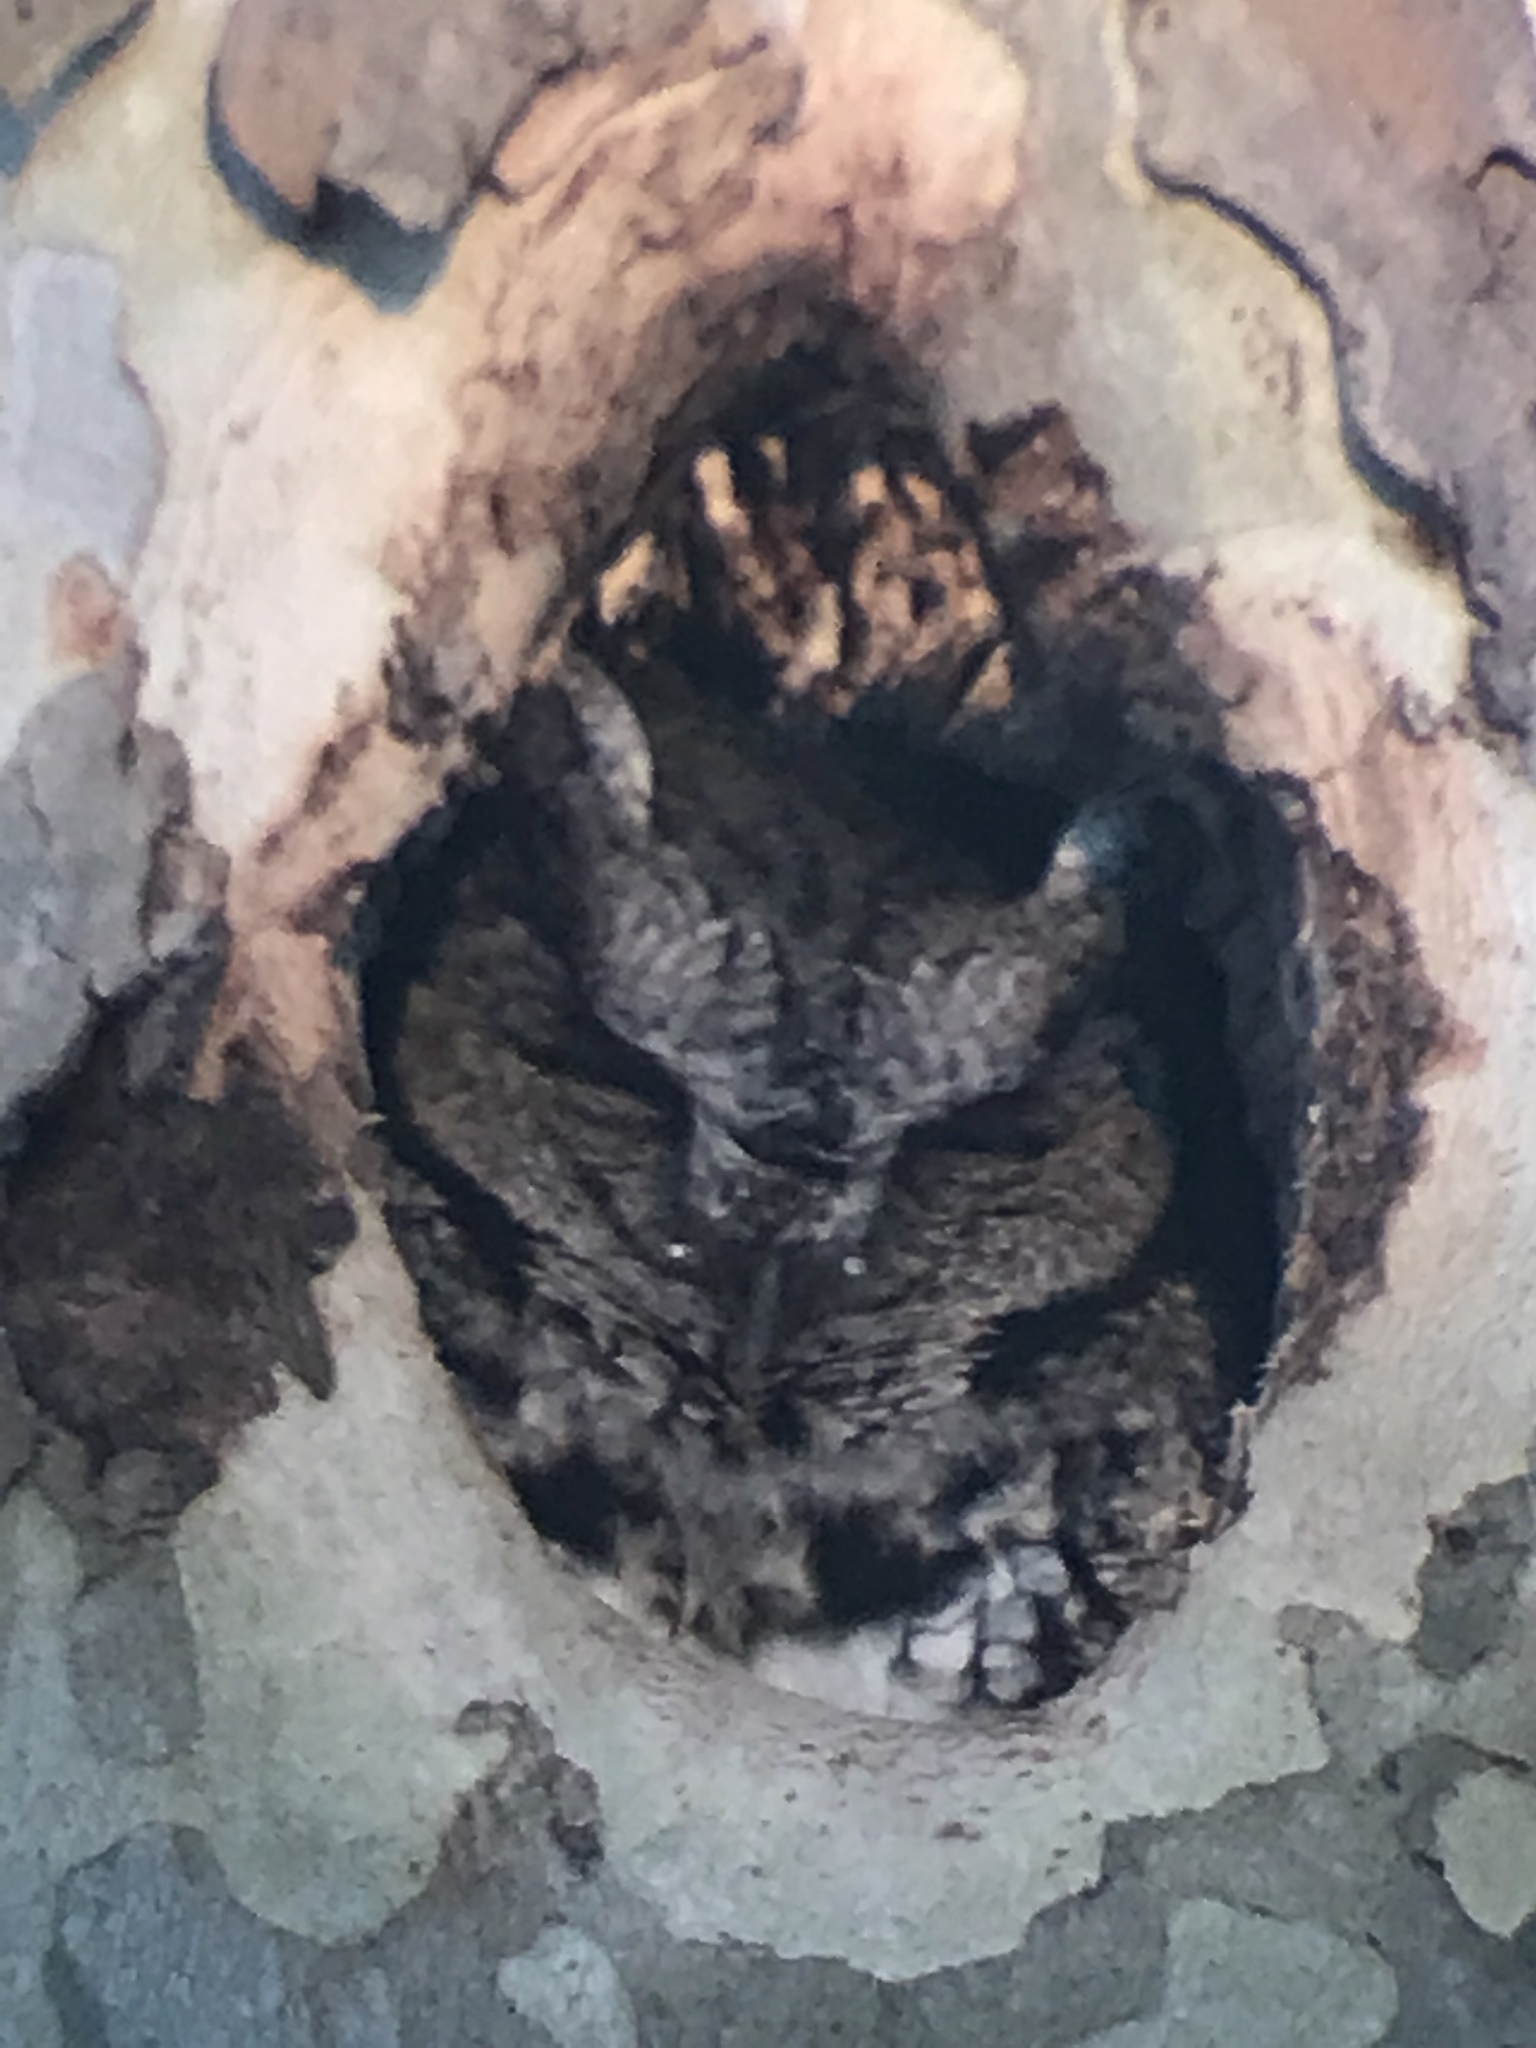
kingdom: Animalia
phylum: Chordata
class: Aves
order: Strigiformes
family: Strigidae
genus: Megascops
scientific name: Megascops asio
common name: Eastern screech-owl
